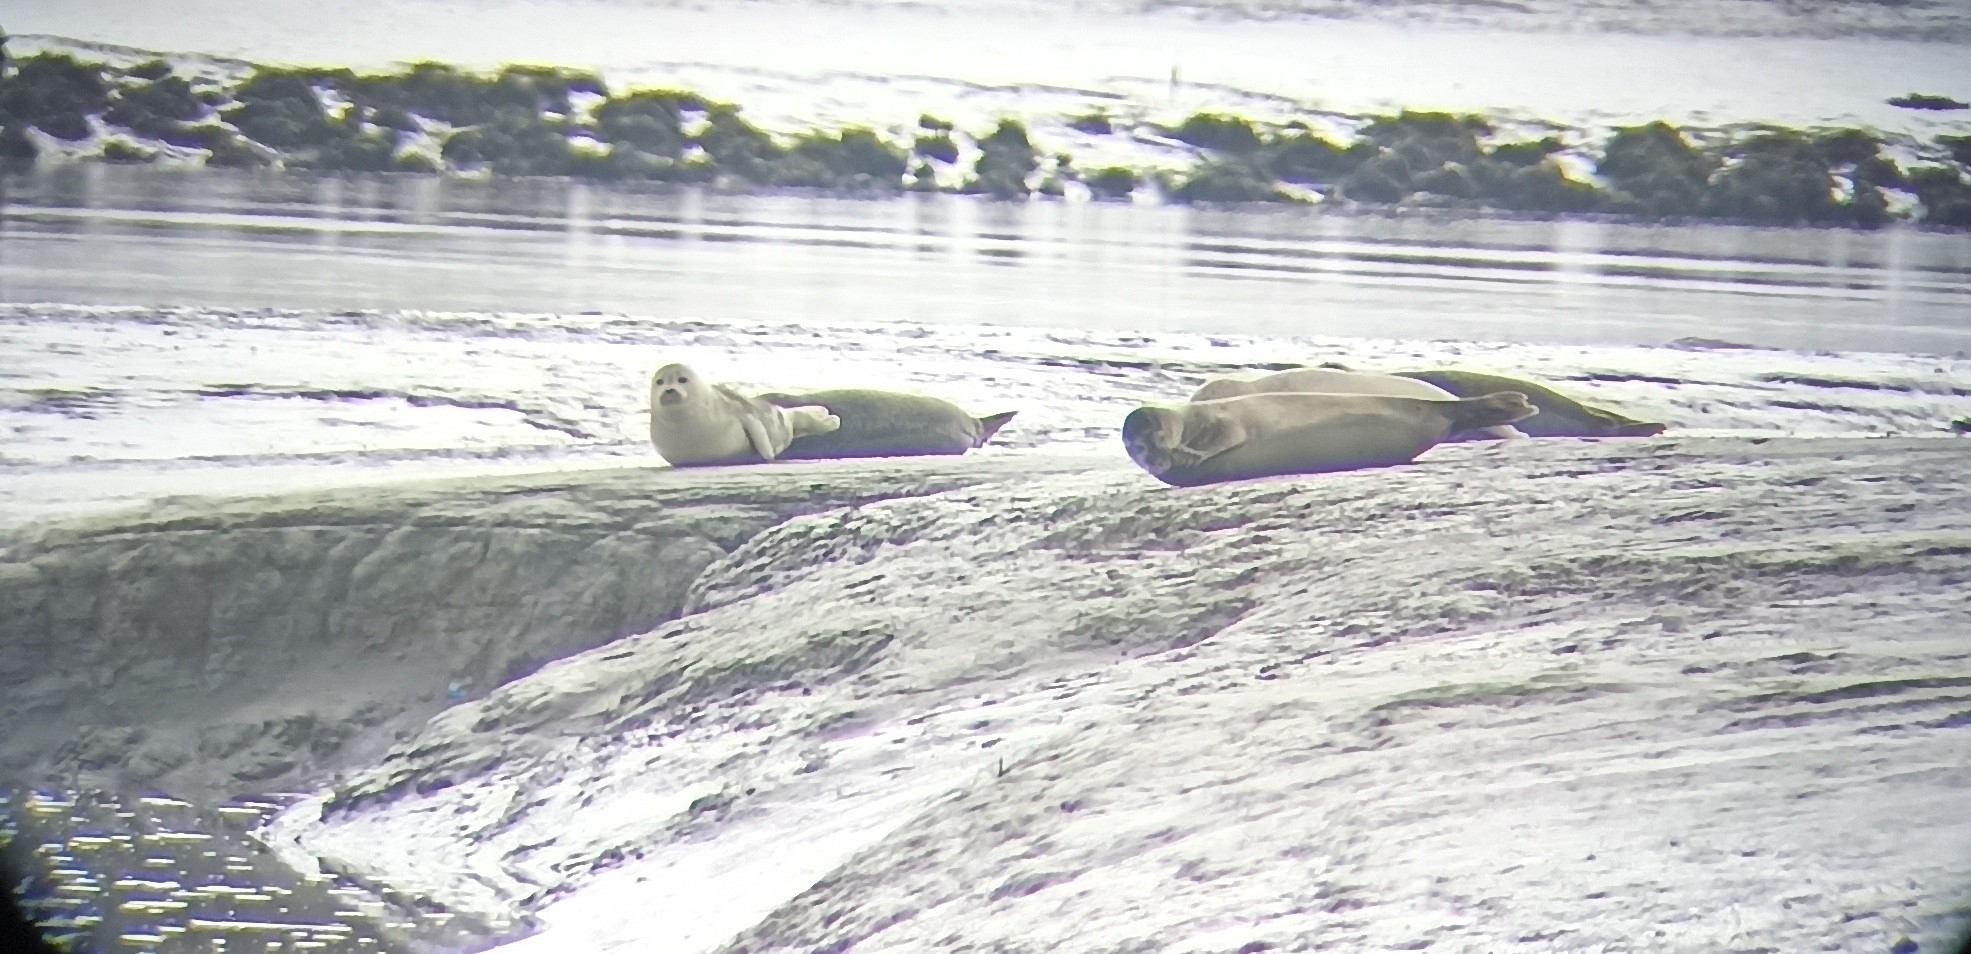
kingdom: Animalia
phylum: Chordata
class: Mammalia
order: Carnivora
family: Phocidae
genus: Phoca
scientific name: Phoca vitulina
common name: Harbor seal
